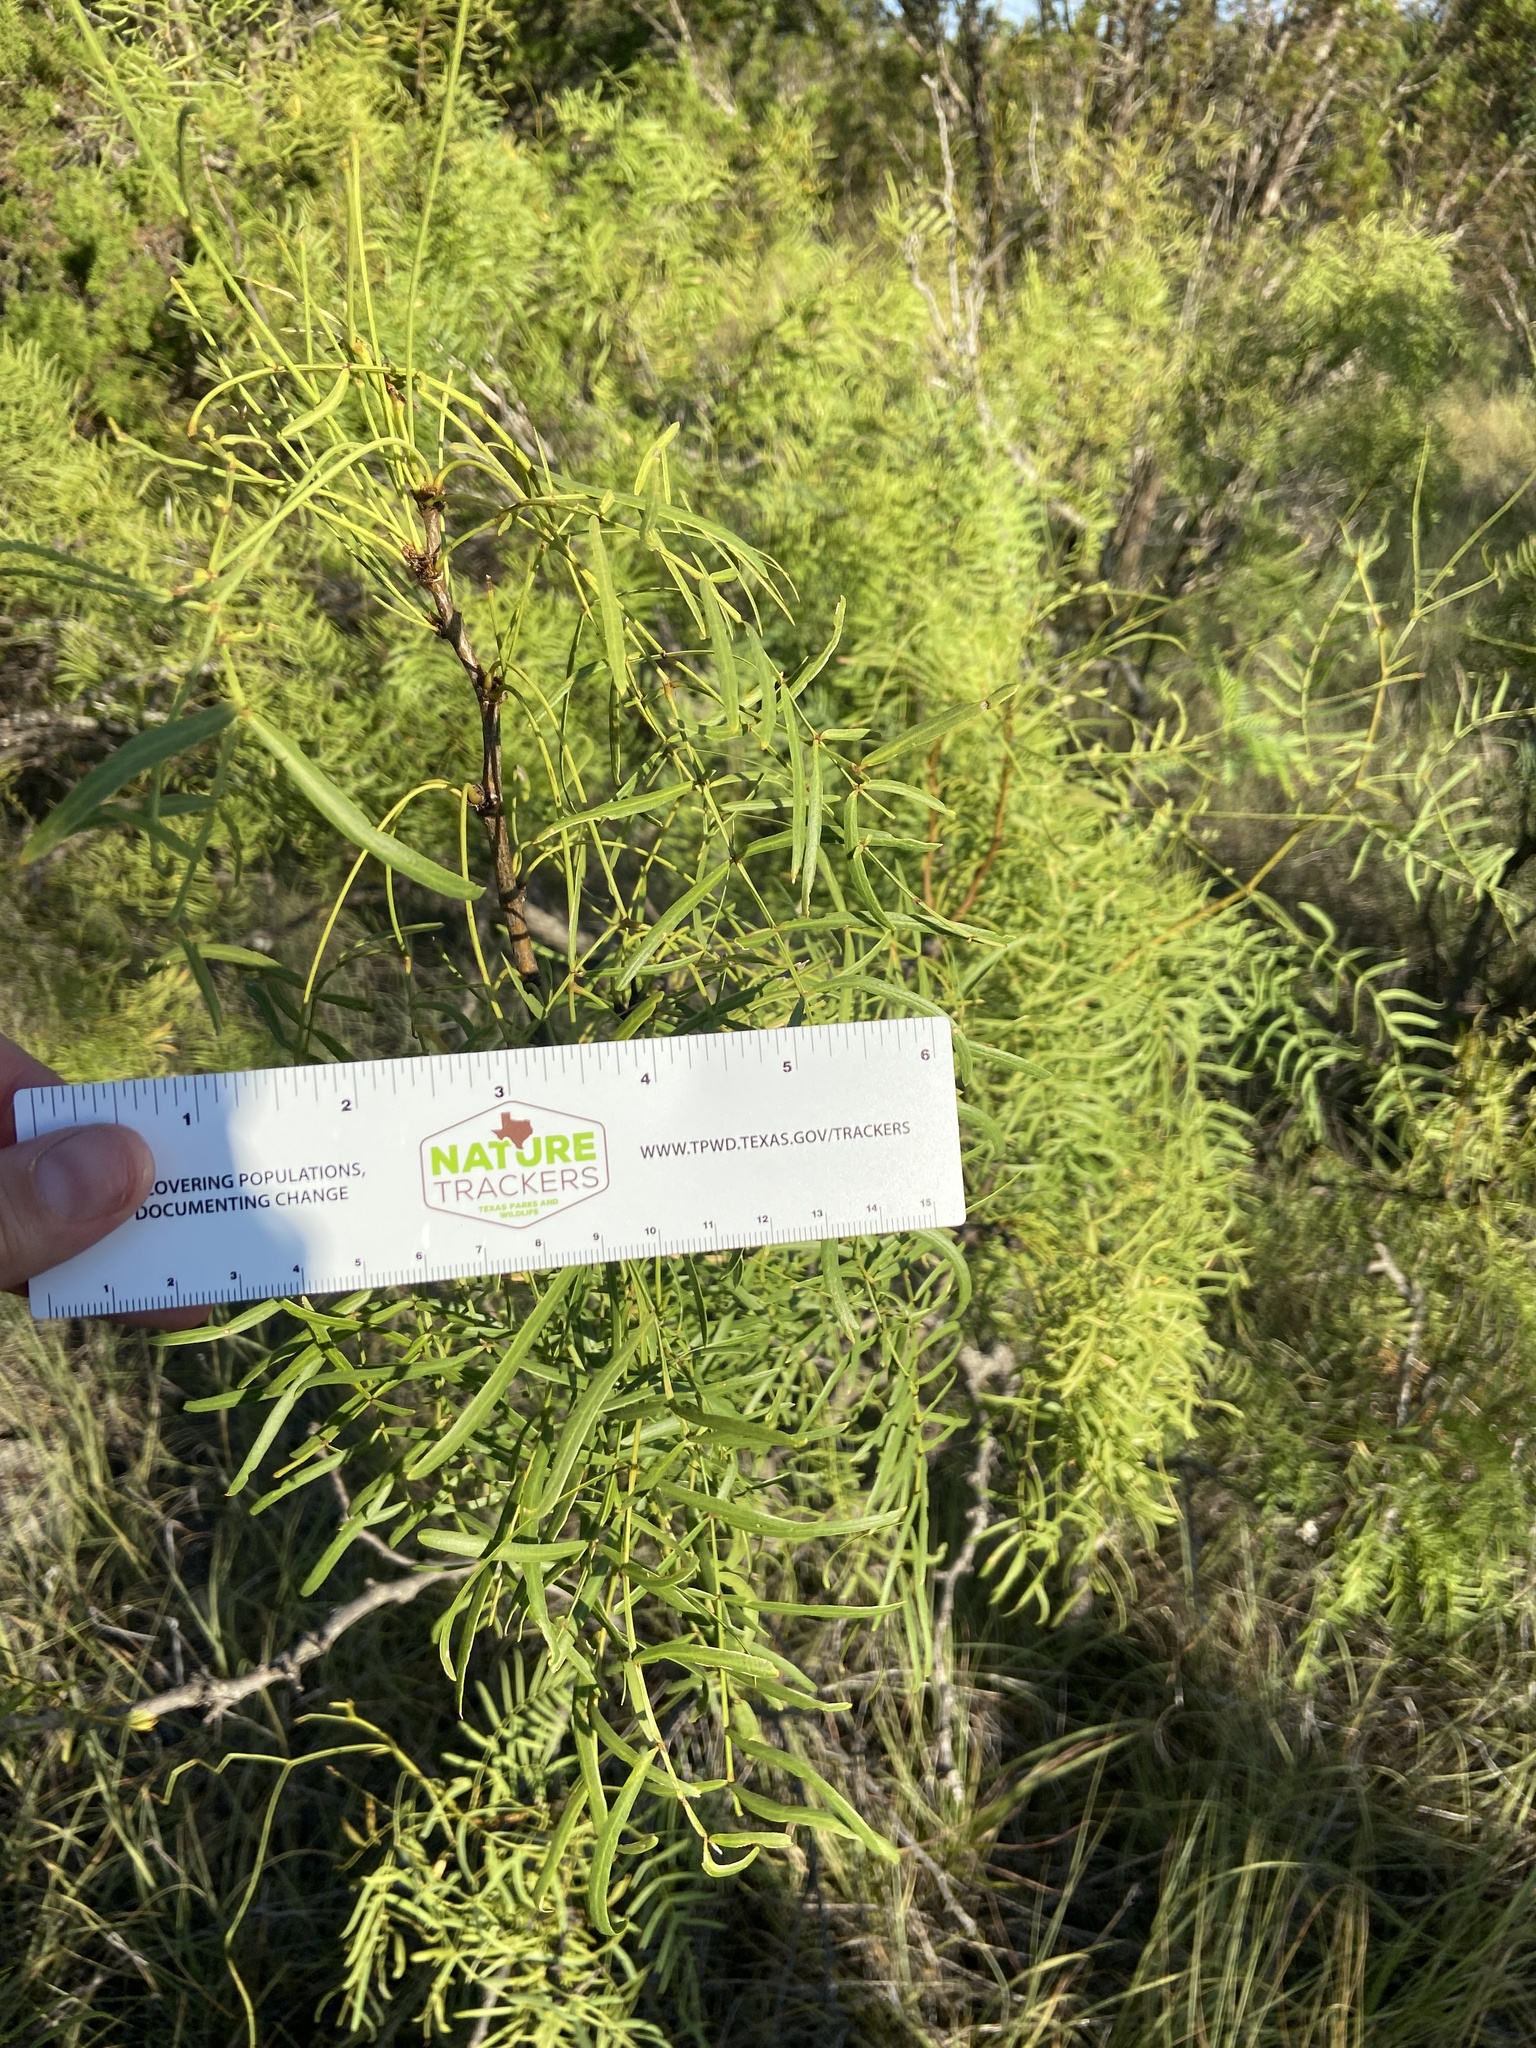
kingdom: Plantae
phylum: Tracheophyta
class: Magnoliopsida
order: Fabales
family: Fabaceae
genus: Prosopis
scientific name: Prosopis glandulosa
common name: Honey mesquite
